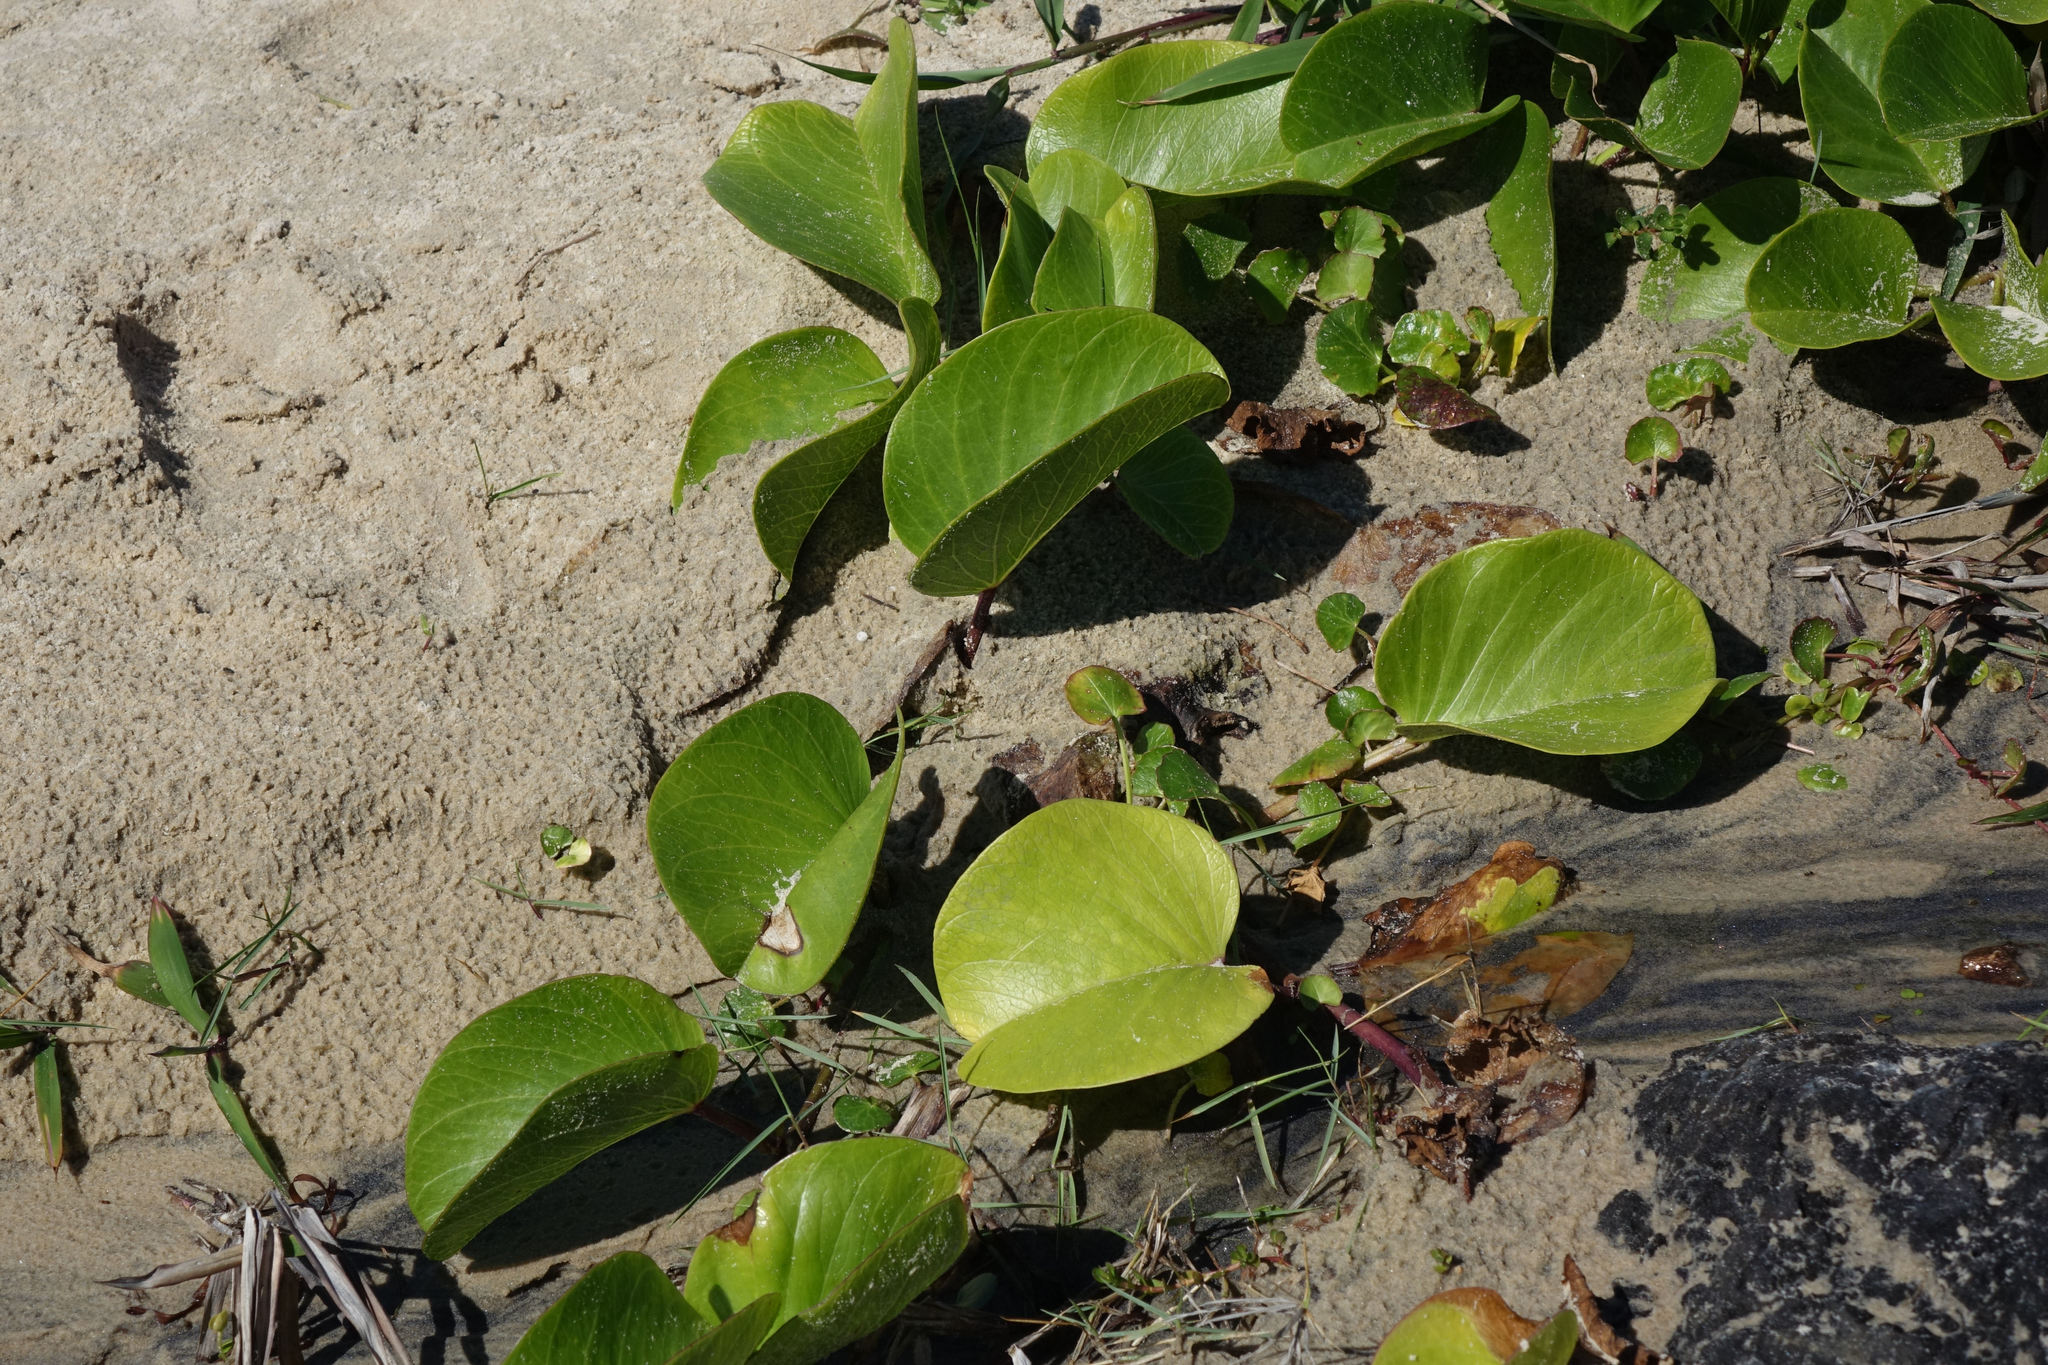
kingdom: Plantae
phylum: Tracheophyta
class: Magnoliopsida
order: Solanales
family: Convolvulaceae
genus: Ipomoea
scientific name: Ipomoea pes-caprae
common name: Beach morning glory
